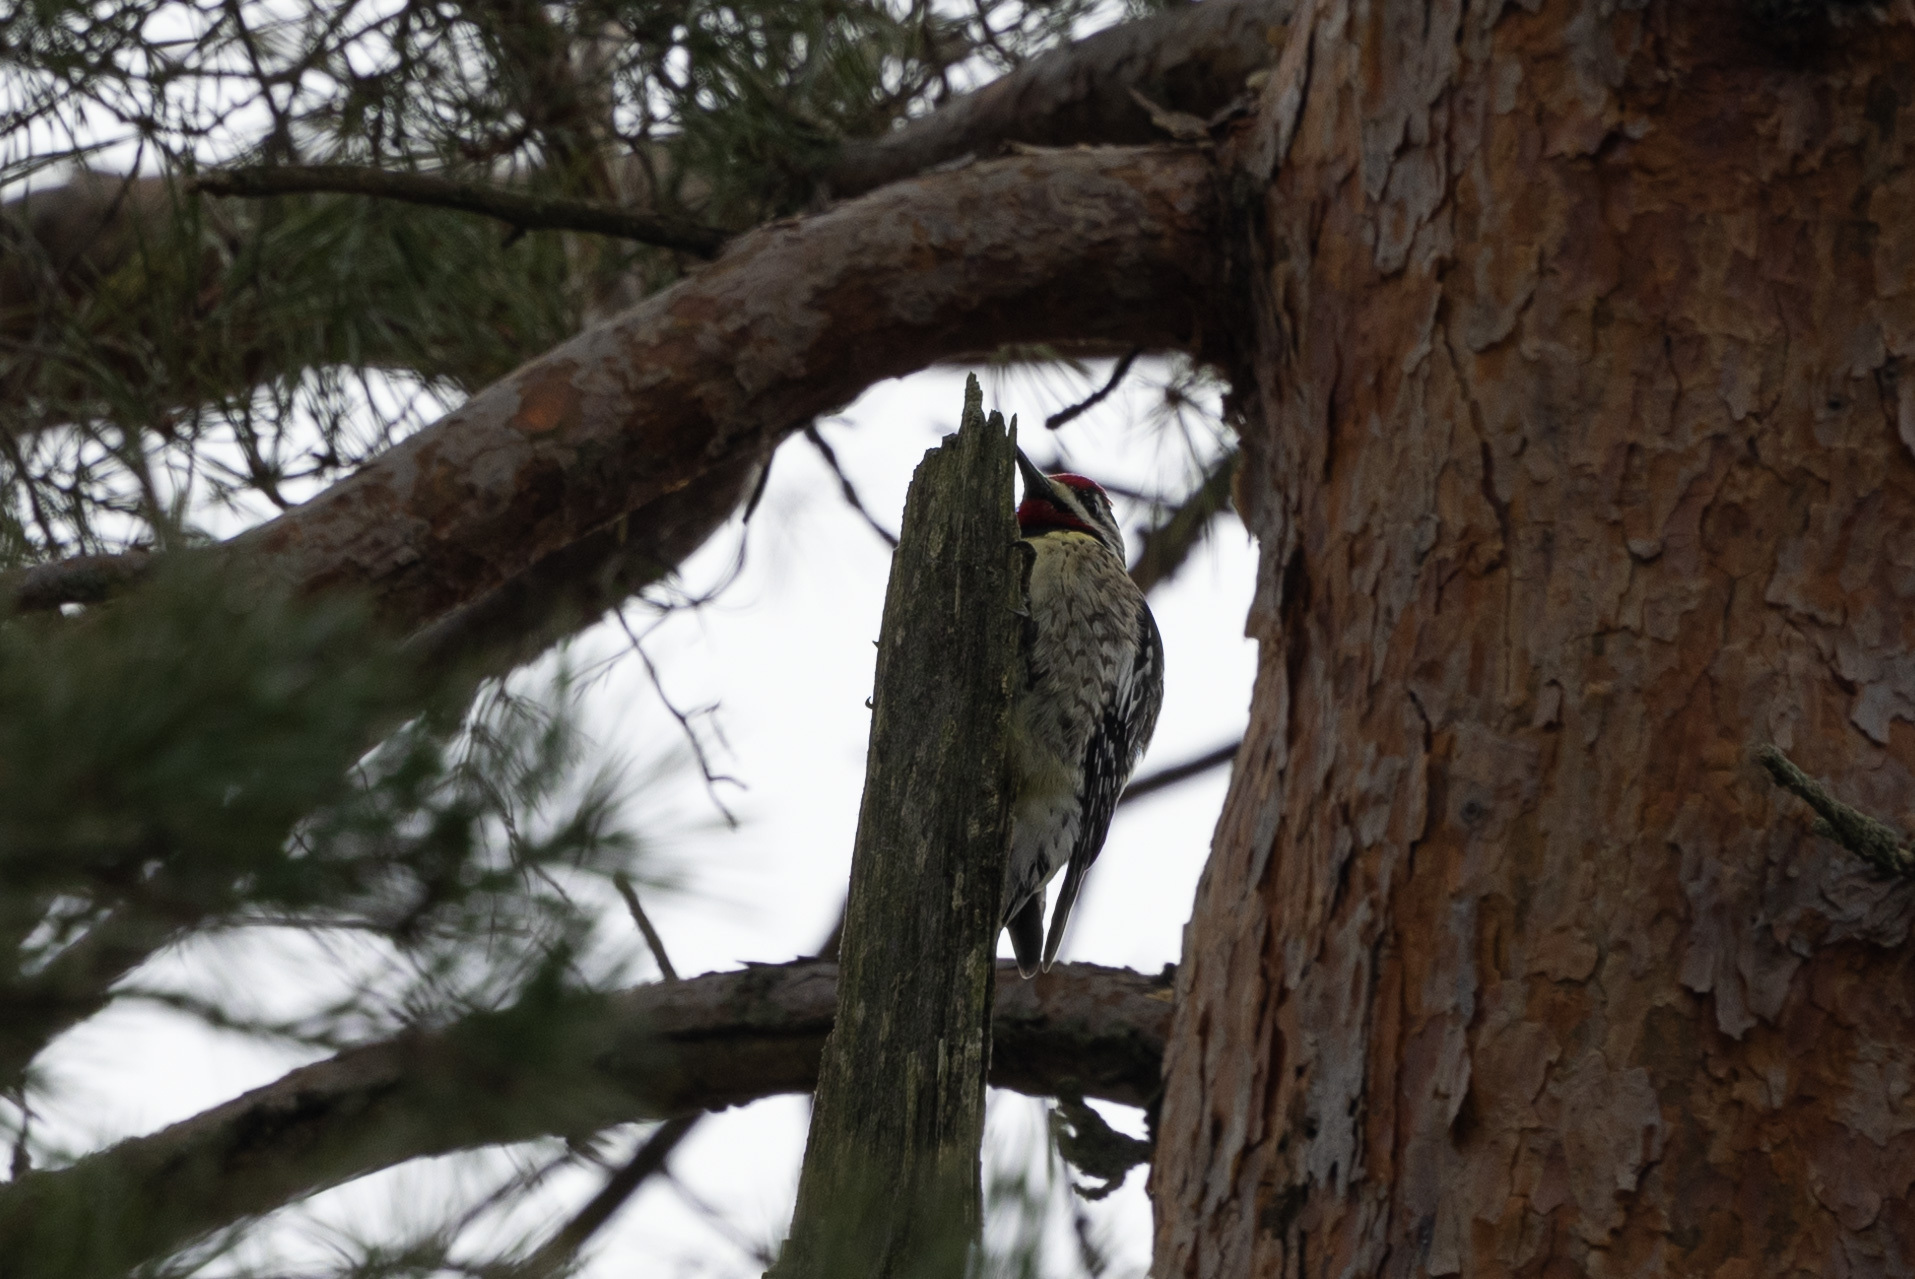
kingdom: Animalia
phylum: Chordata
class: Aves
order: Piciformes
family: Picidae
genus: Sphyrapicus
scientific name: Sphyrapicus varius
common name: Yellow-bellied sapsucker
